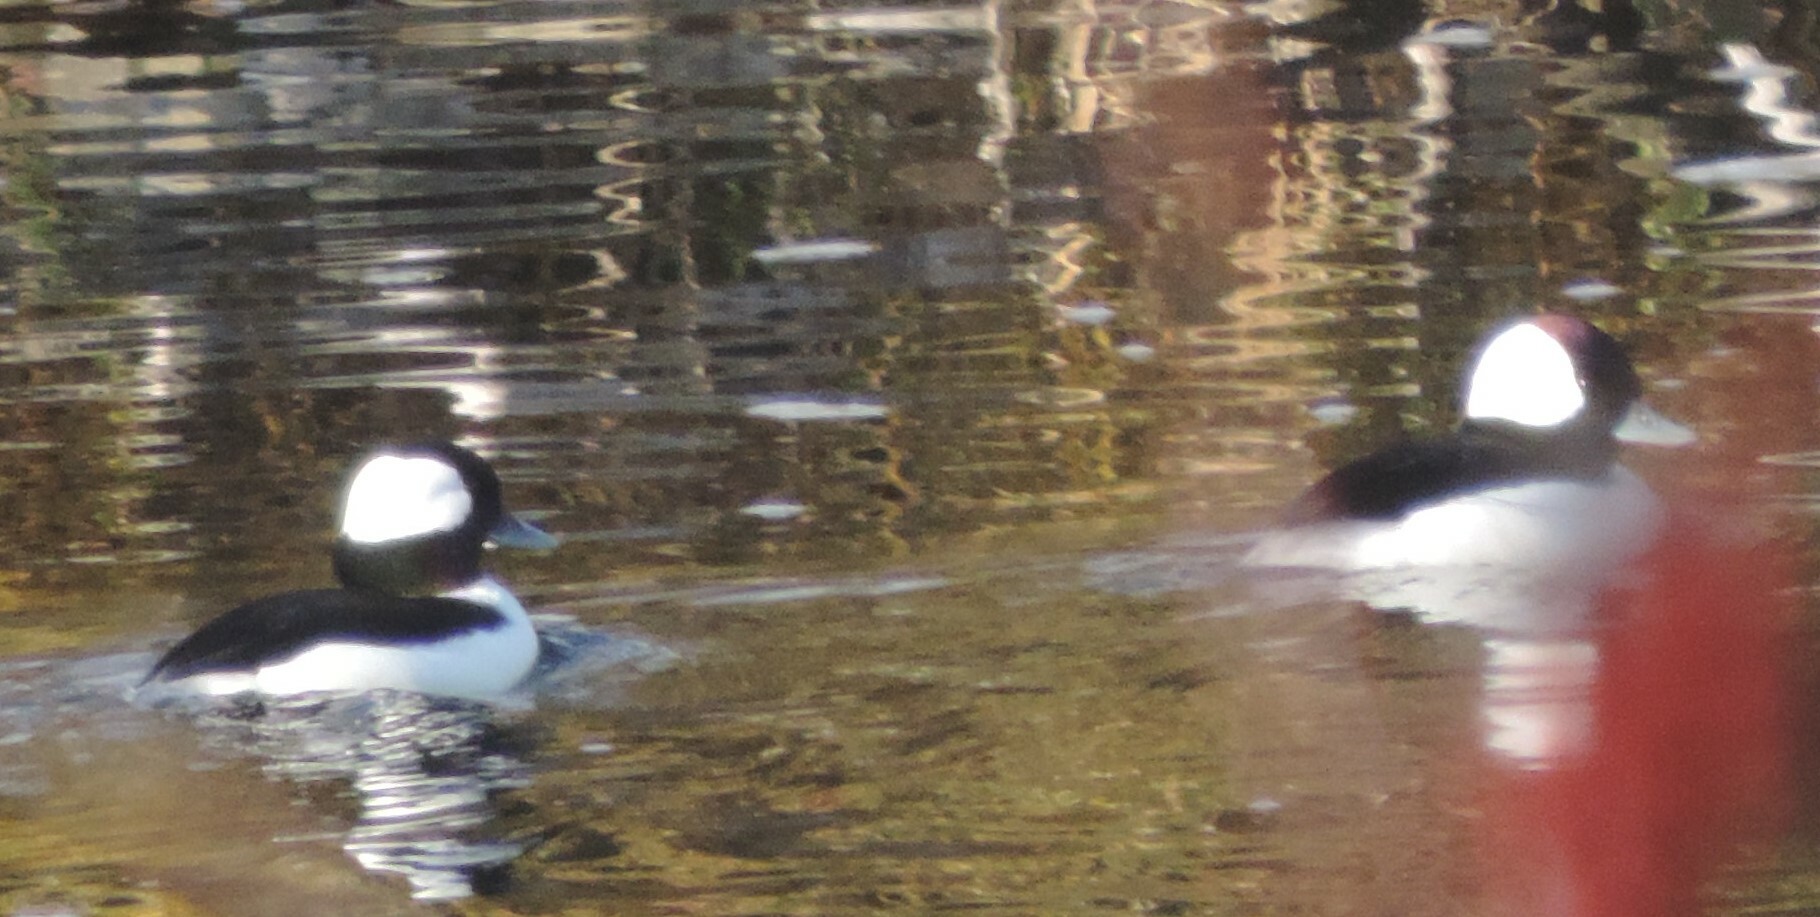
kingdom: Animalia
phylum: Chordata
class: Aves
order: Anseriformes
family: Anatidae
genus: Bucephala
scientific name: Bucephala albeola
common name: Bufflehead
